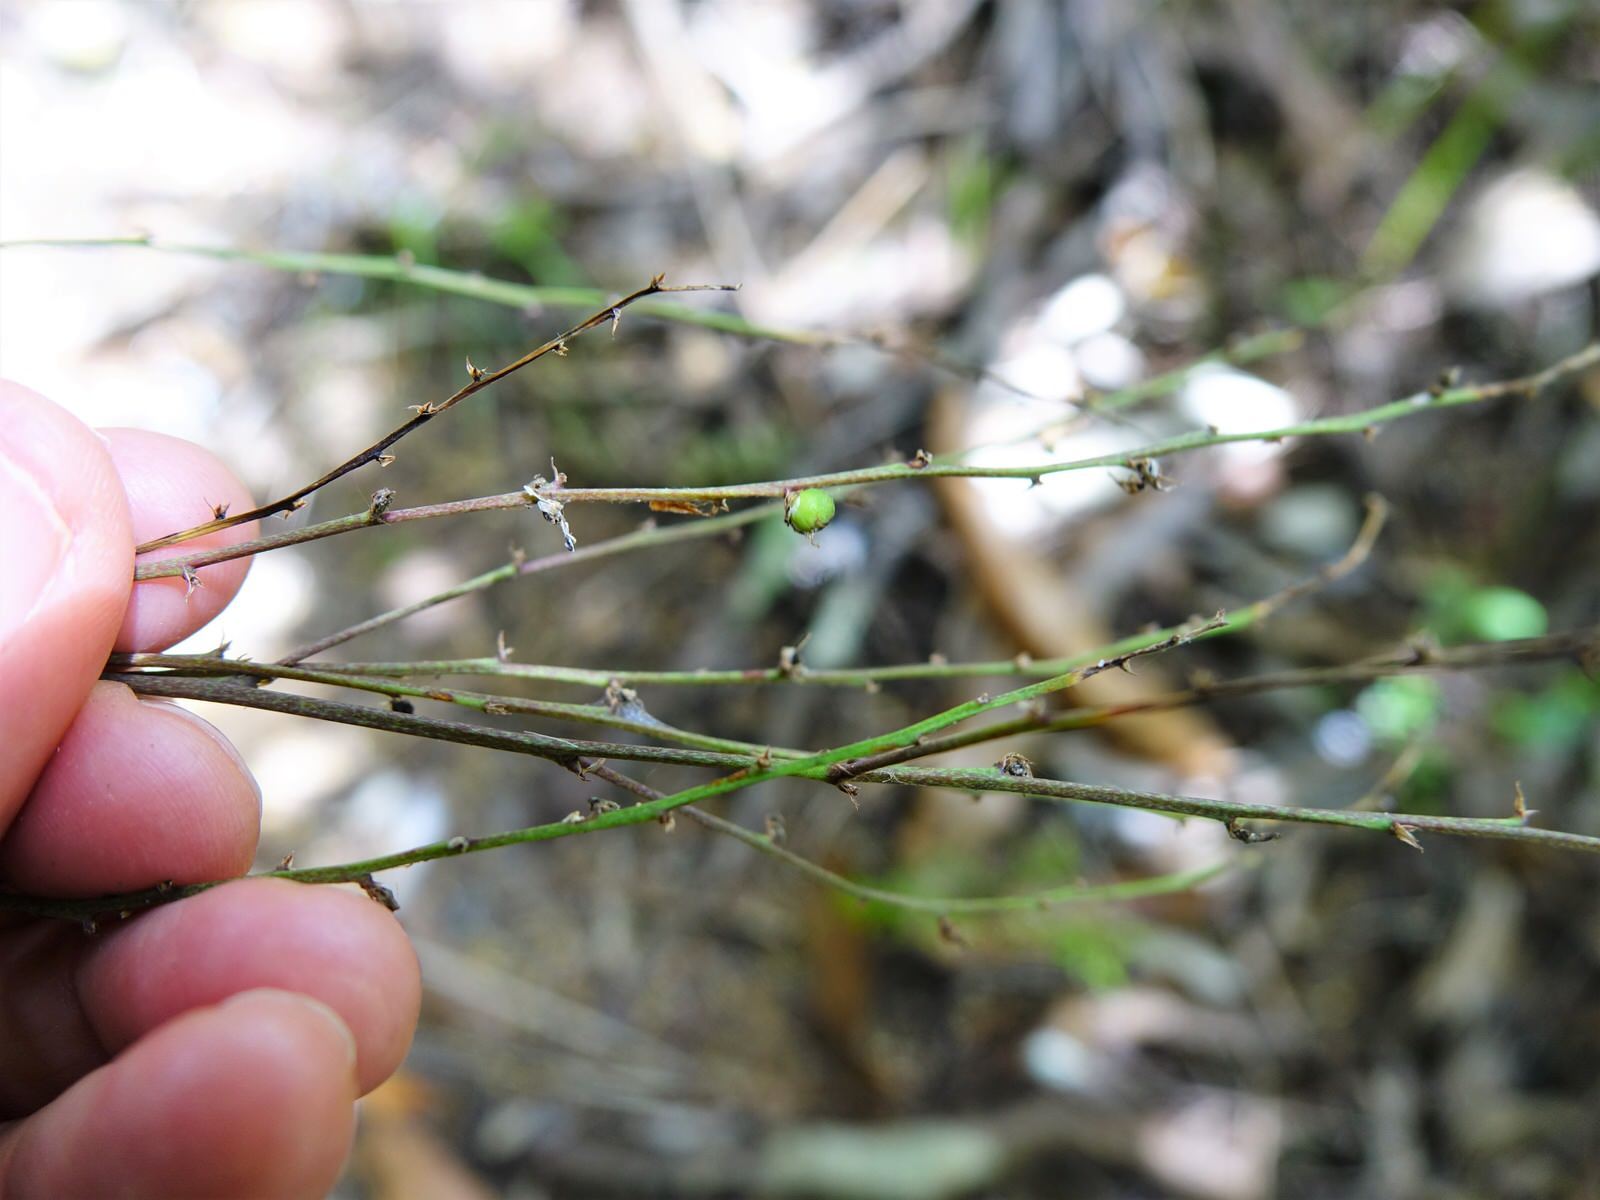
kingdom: Plantae
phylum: Tracheophyta
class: Liliopsida
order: Asparagales
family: Asparagaceae
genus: Cordyline
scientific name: Cordyline pumilio
